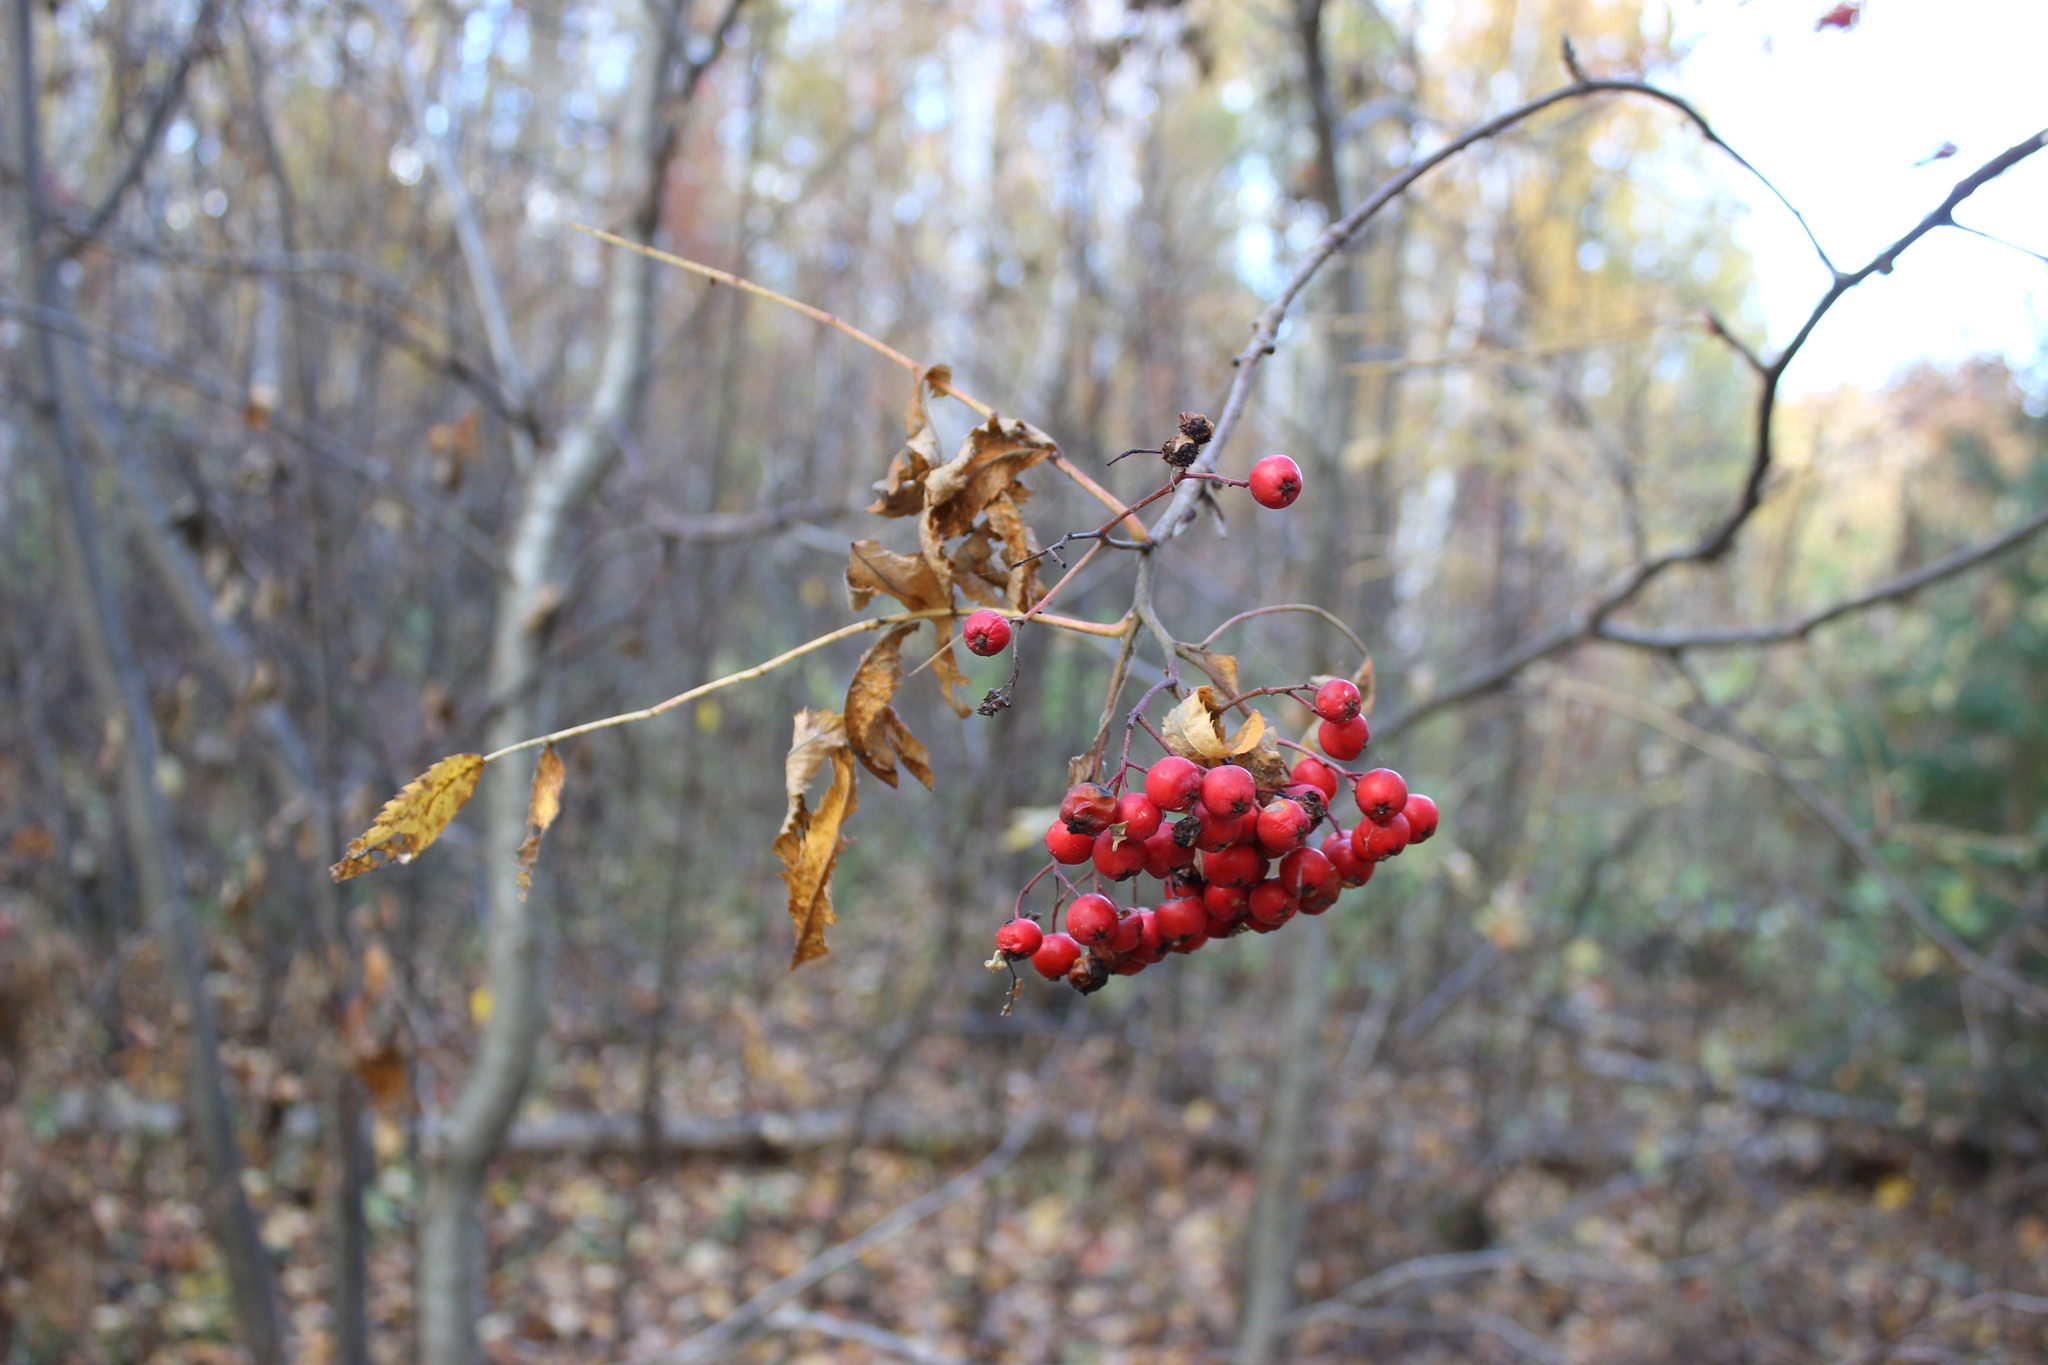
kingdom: Plantae
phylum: Tracheophyta
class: Magnoliopsida
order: Rosales
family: Rosaceae
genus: Sorbus
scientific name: Sorbus aucuparia
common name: Rowan
